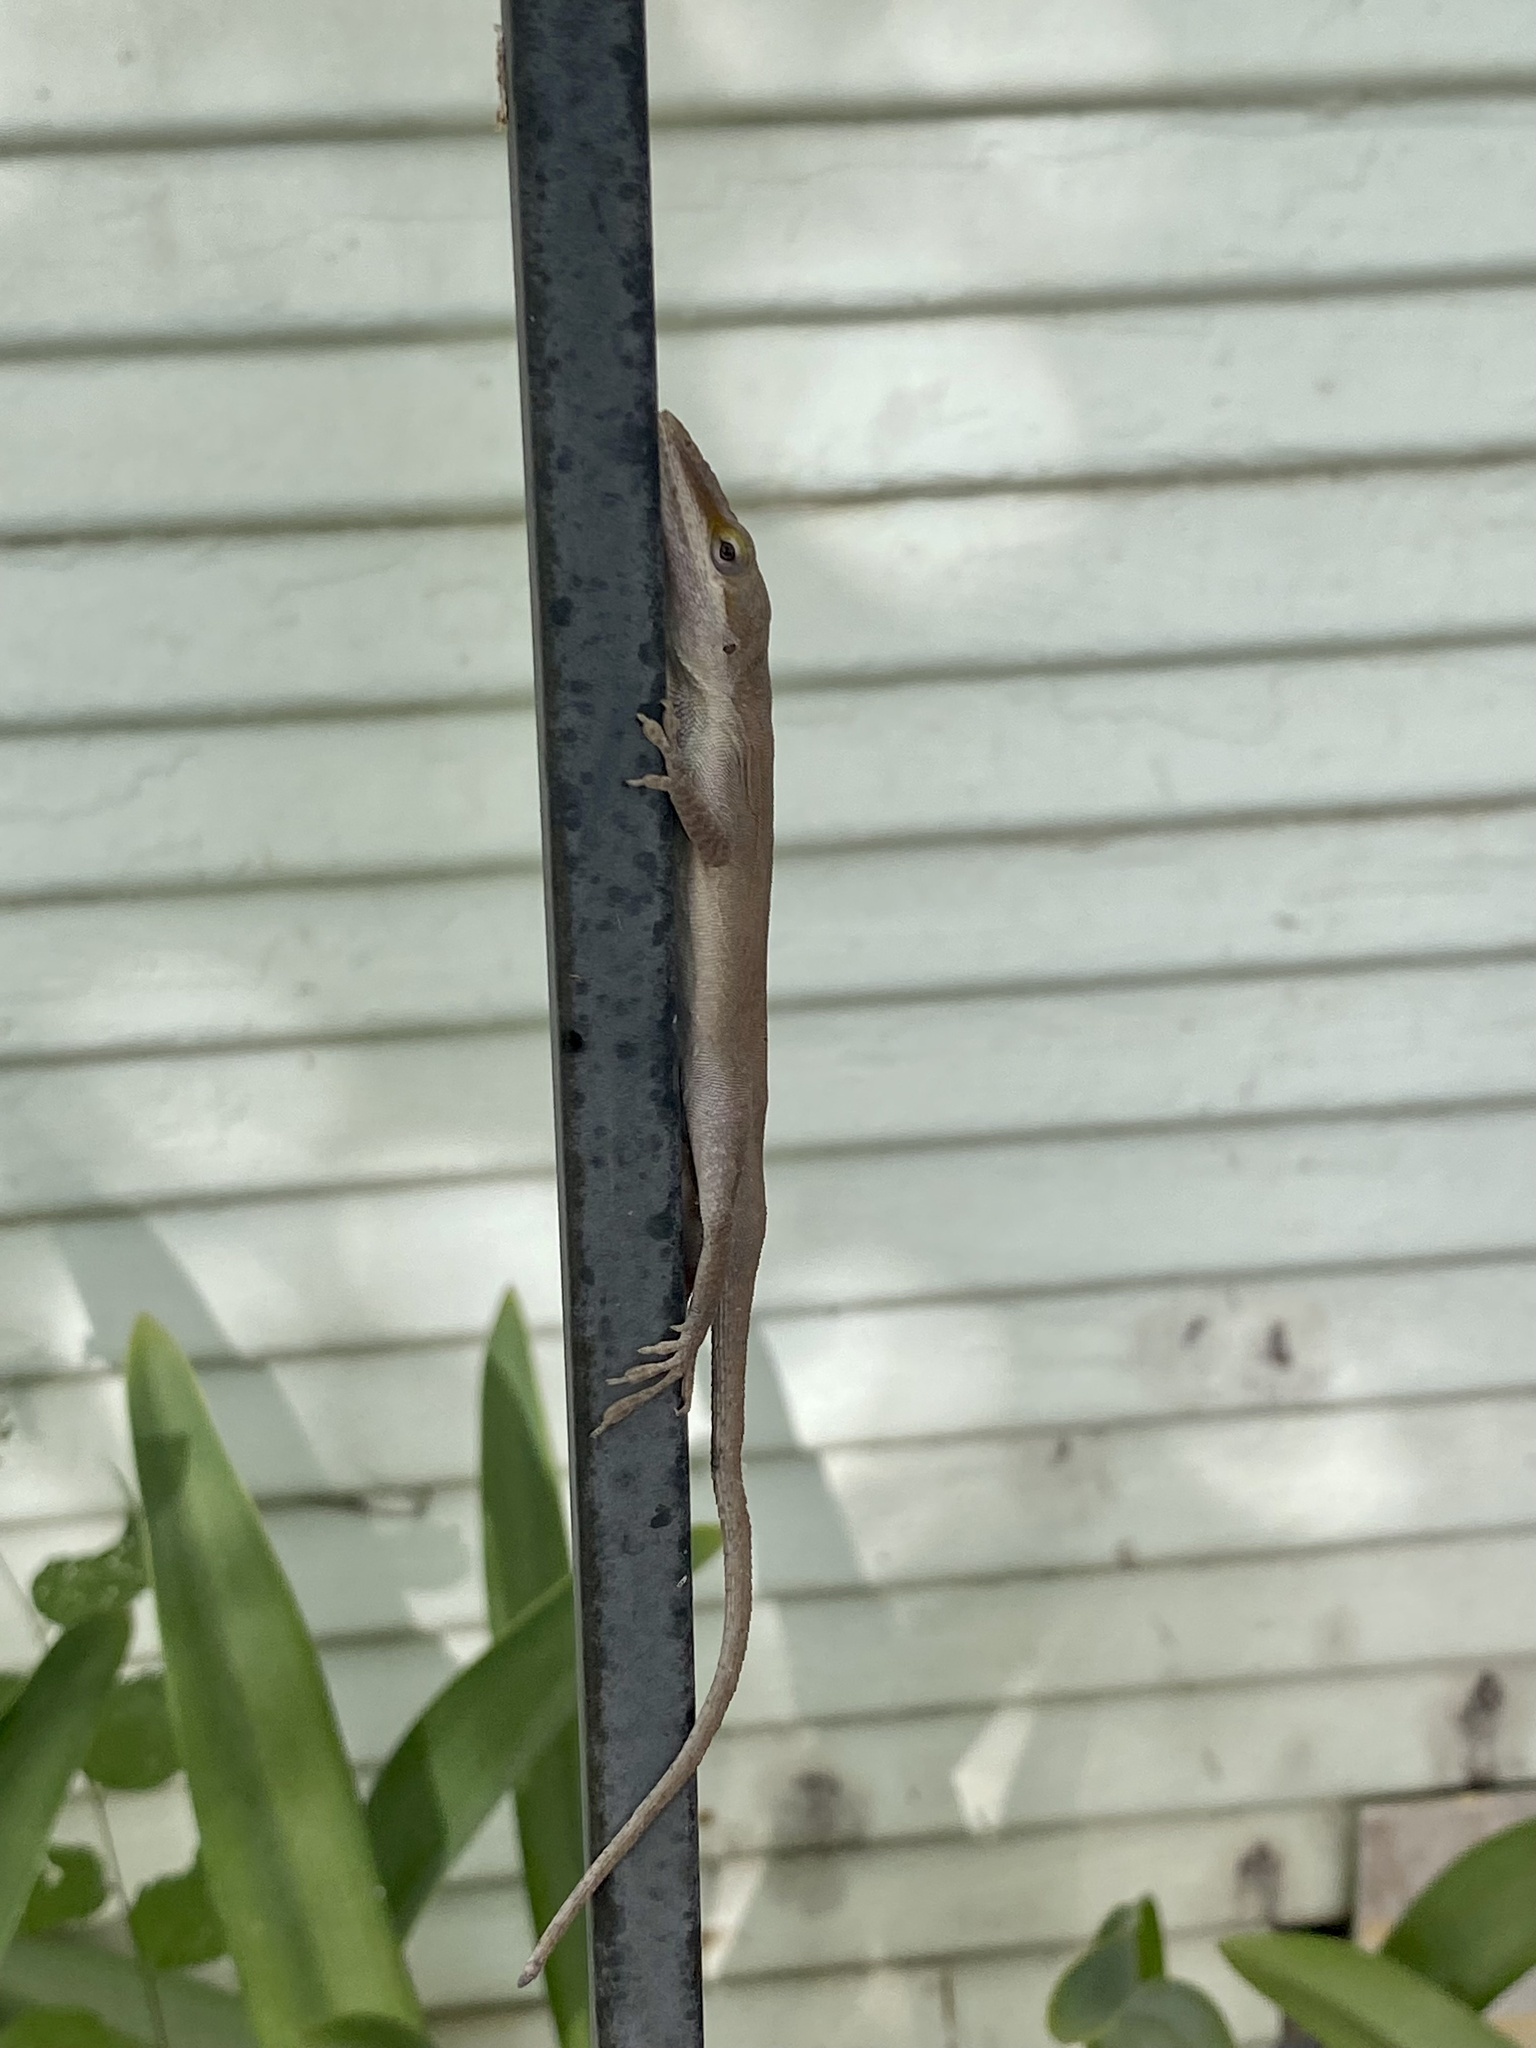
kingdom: Animalia
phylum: Chordata
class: Squamata
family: Dactyloidae
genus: Anolis
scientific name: Anolis carolinensis
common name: Green anole
